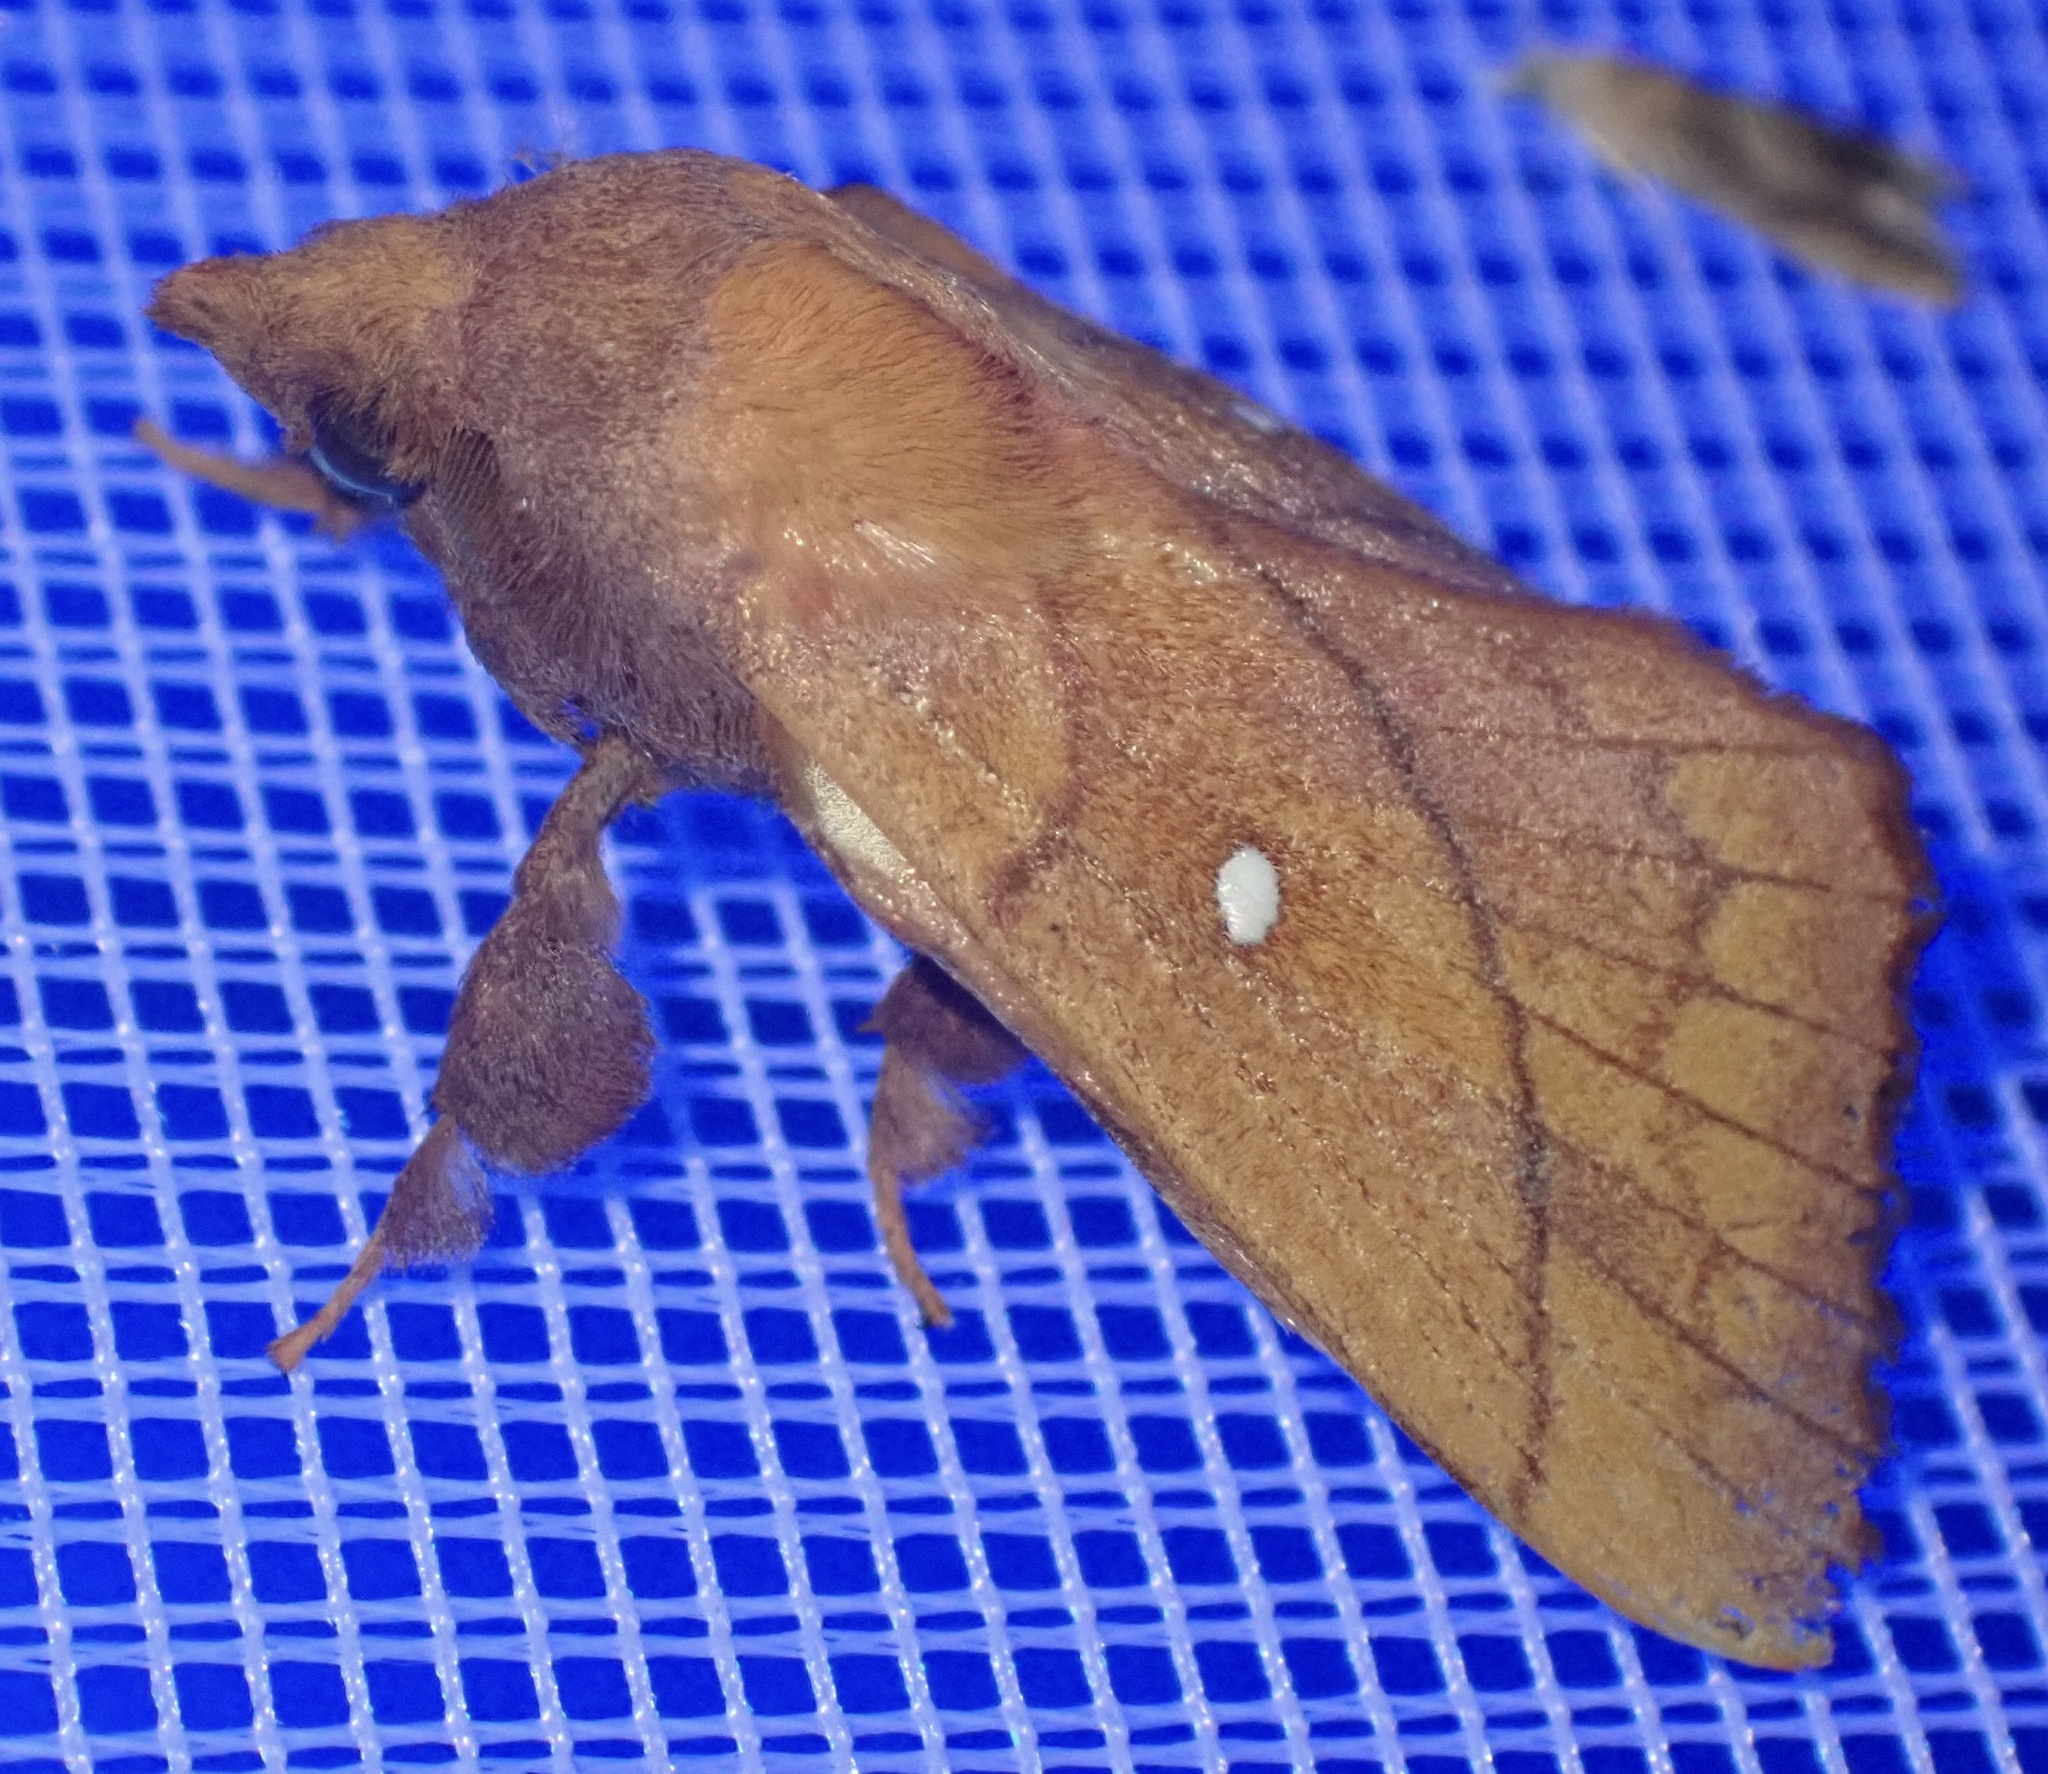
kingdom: Animalia
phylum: Arthropoda
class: Insecta
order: Lepidoptera
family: Lasiocampidae
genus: Odonestis
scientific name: Odonestis pruni
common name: Plum lappet
